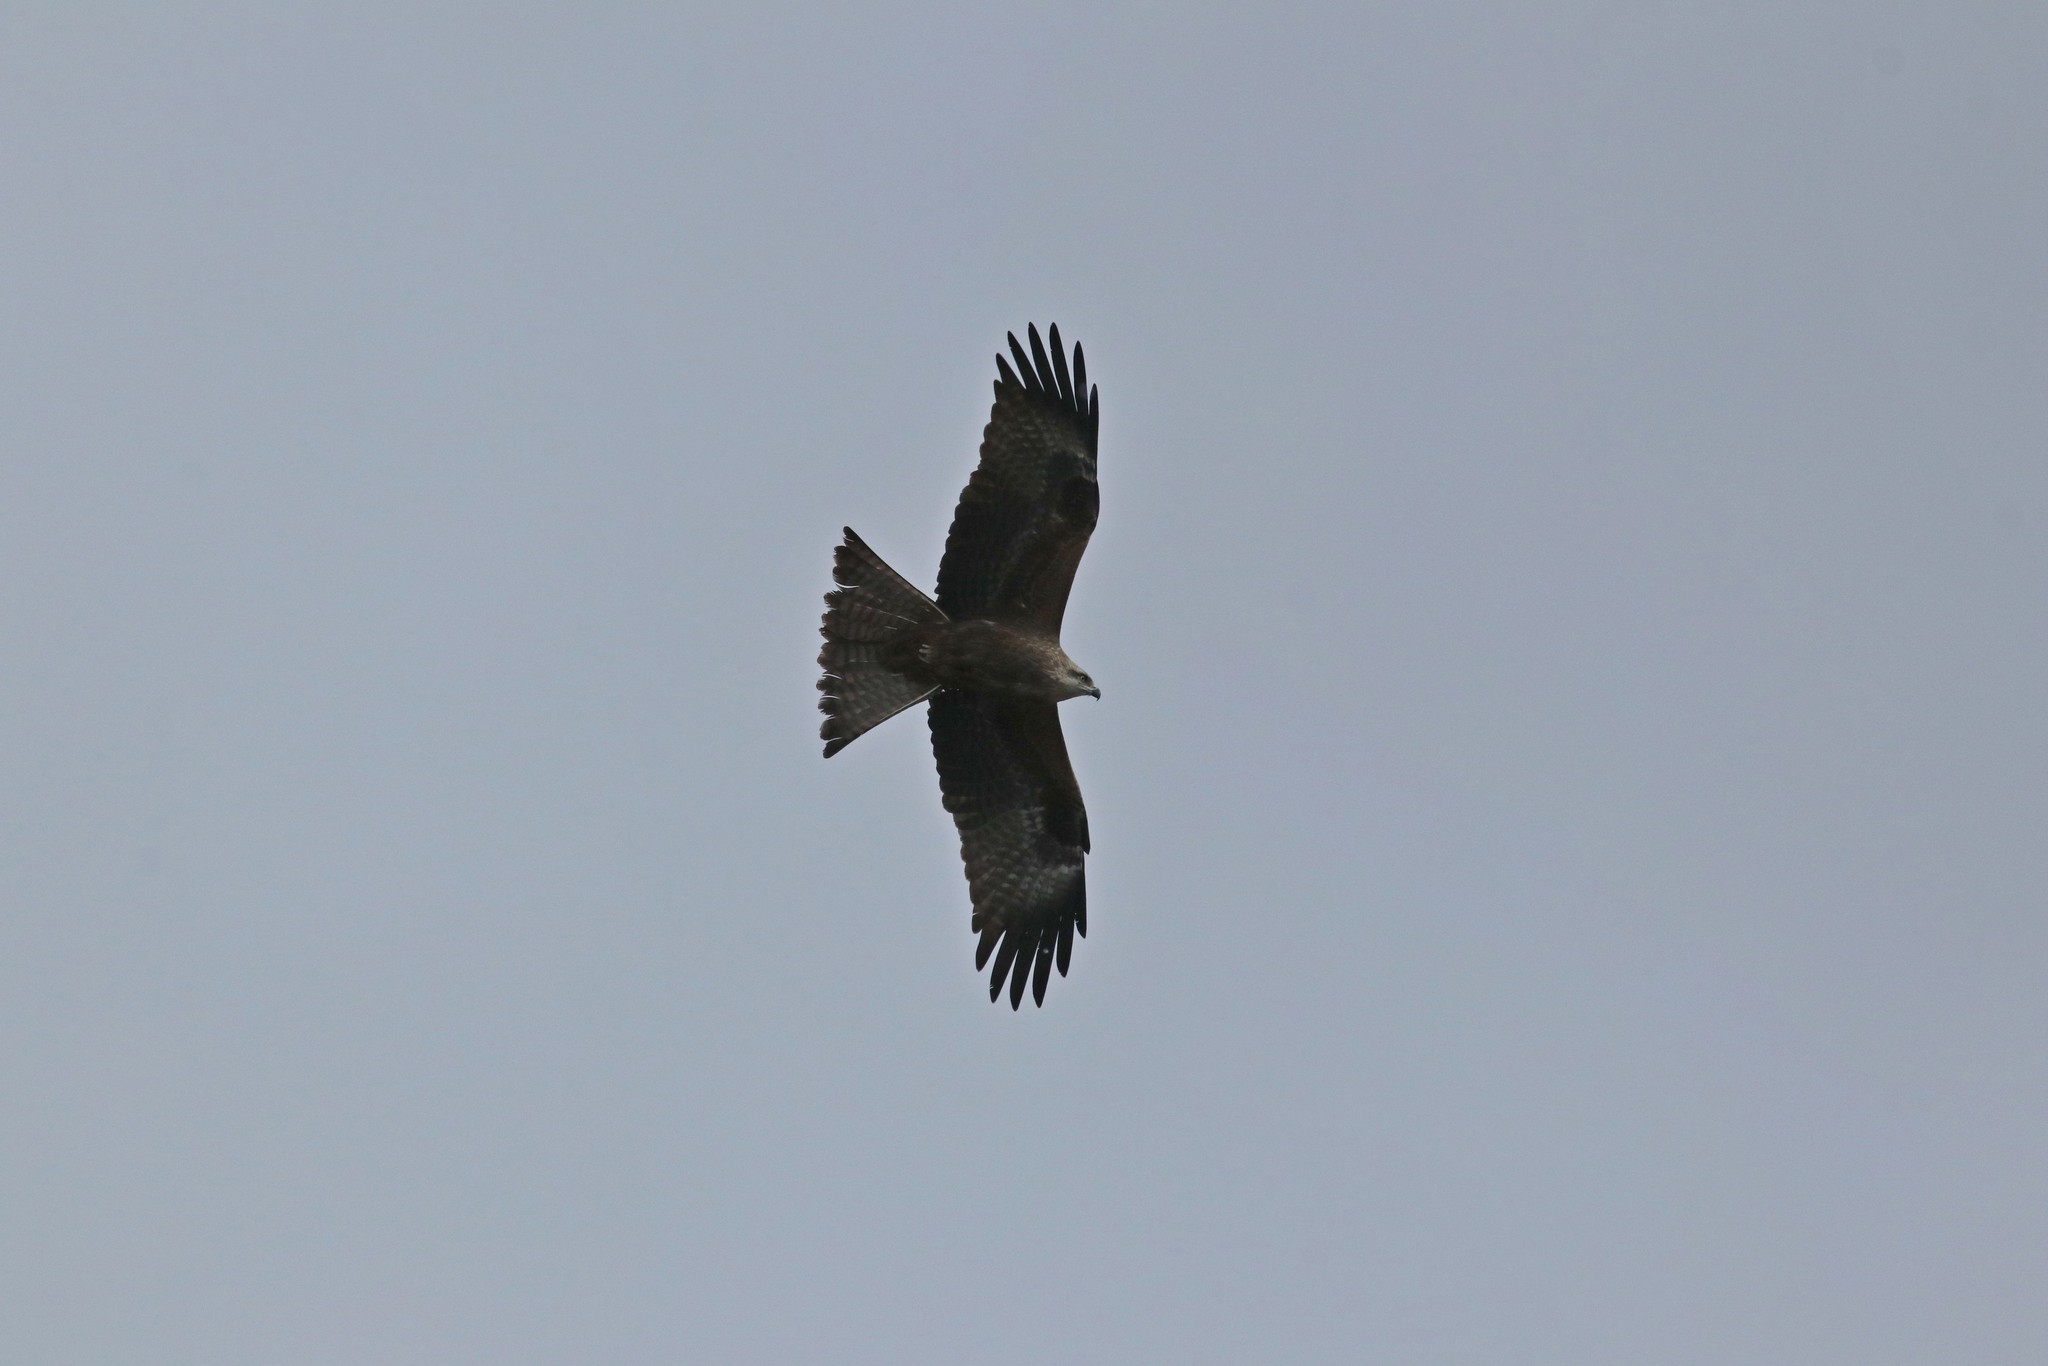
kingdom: Animalia
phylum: Chordata
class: Aves
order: Accipitriformes
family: Accipitridae
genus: Milvus
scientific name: Milvus migrans
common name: Black kite
